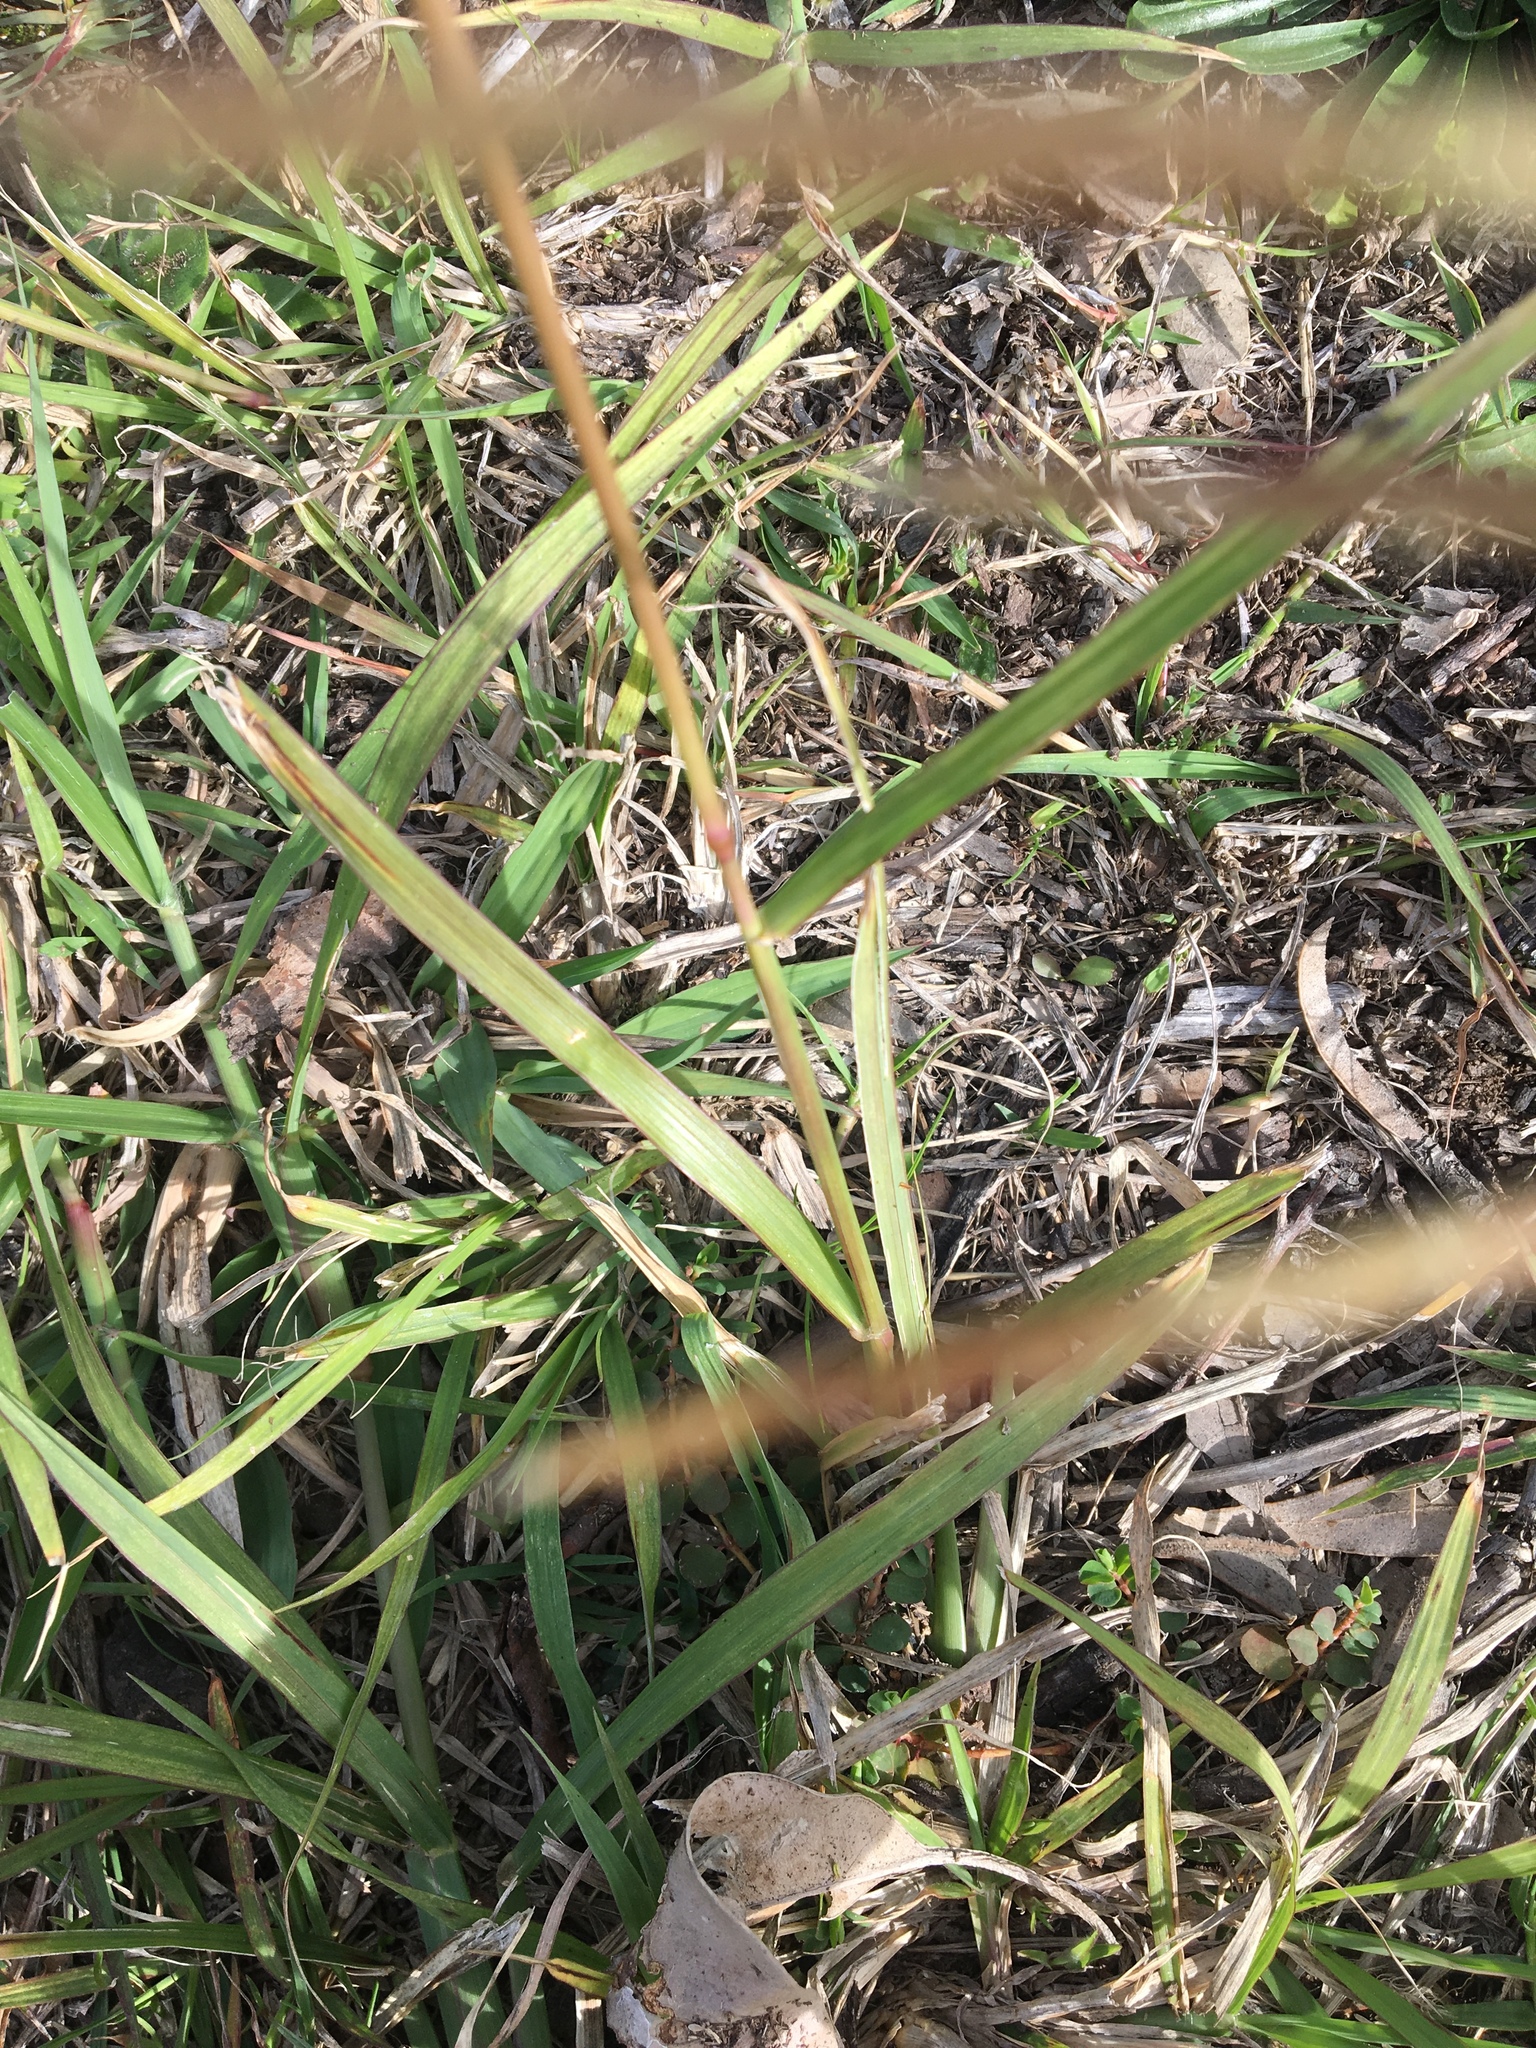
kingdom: Plantae
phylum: Tracheophyta
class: Liliopsida
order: Poales
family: Poaceae
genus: Chloris
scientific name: Chloris gayana
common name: Rhodes grass
